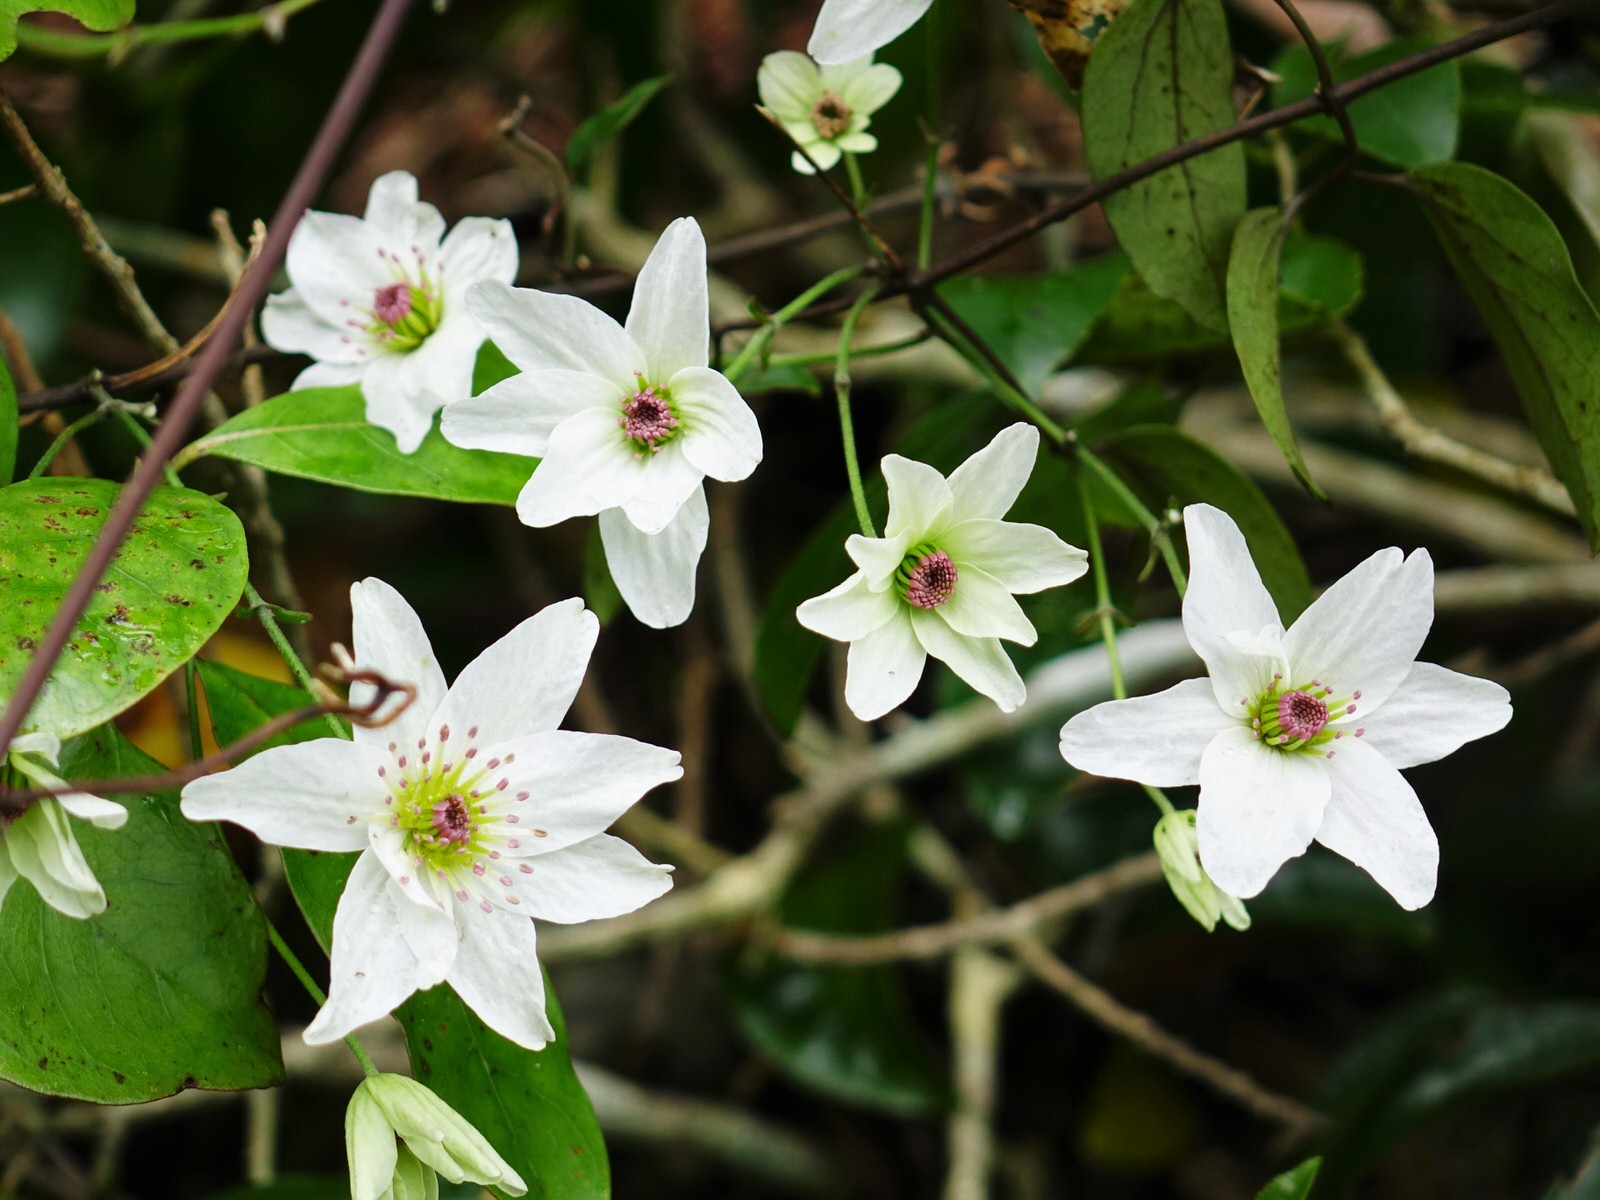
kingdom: Plantae
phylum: Tracheophyta
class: Magnoliopsida
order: Ranunculales
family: Ranunculaceae
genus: Clematis
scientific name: Clematis paniculata
